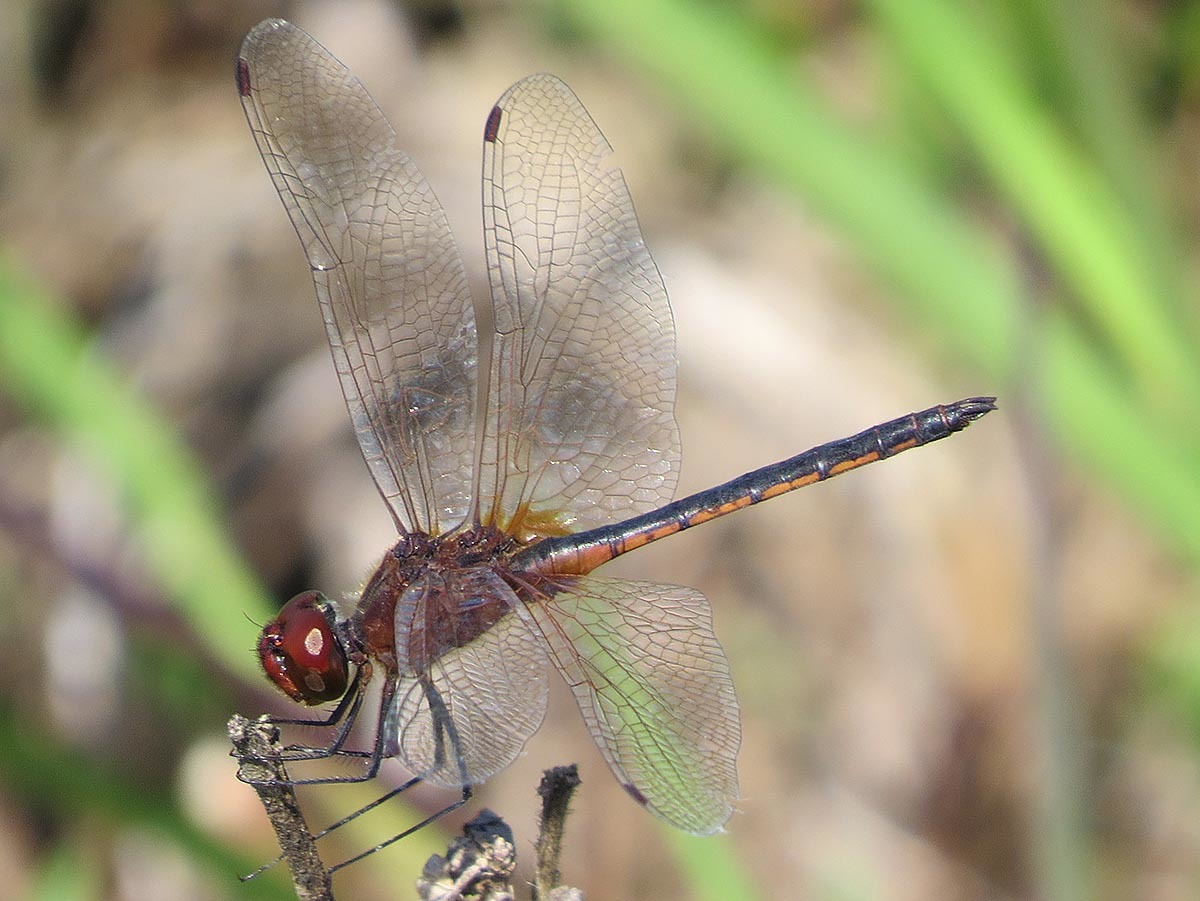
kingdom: Animalia
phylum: Arthropoda
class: Insecta
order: Odonata
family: Libellulidae
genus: Idiataphe
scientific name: Idiataphe longipes
